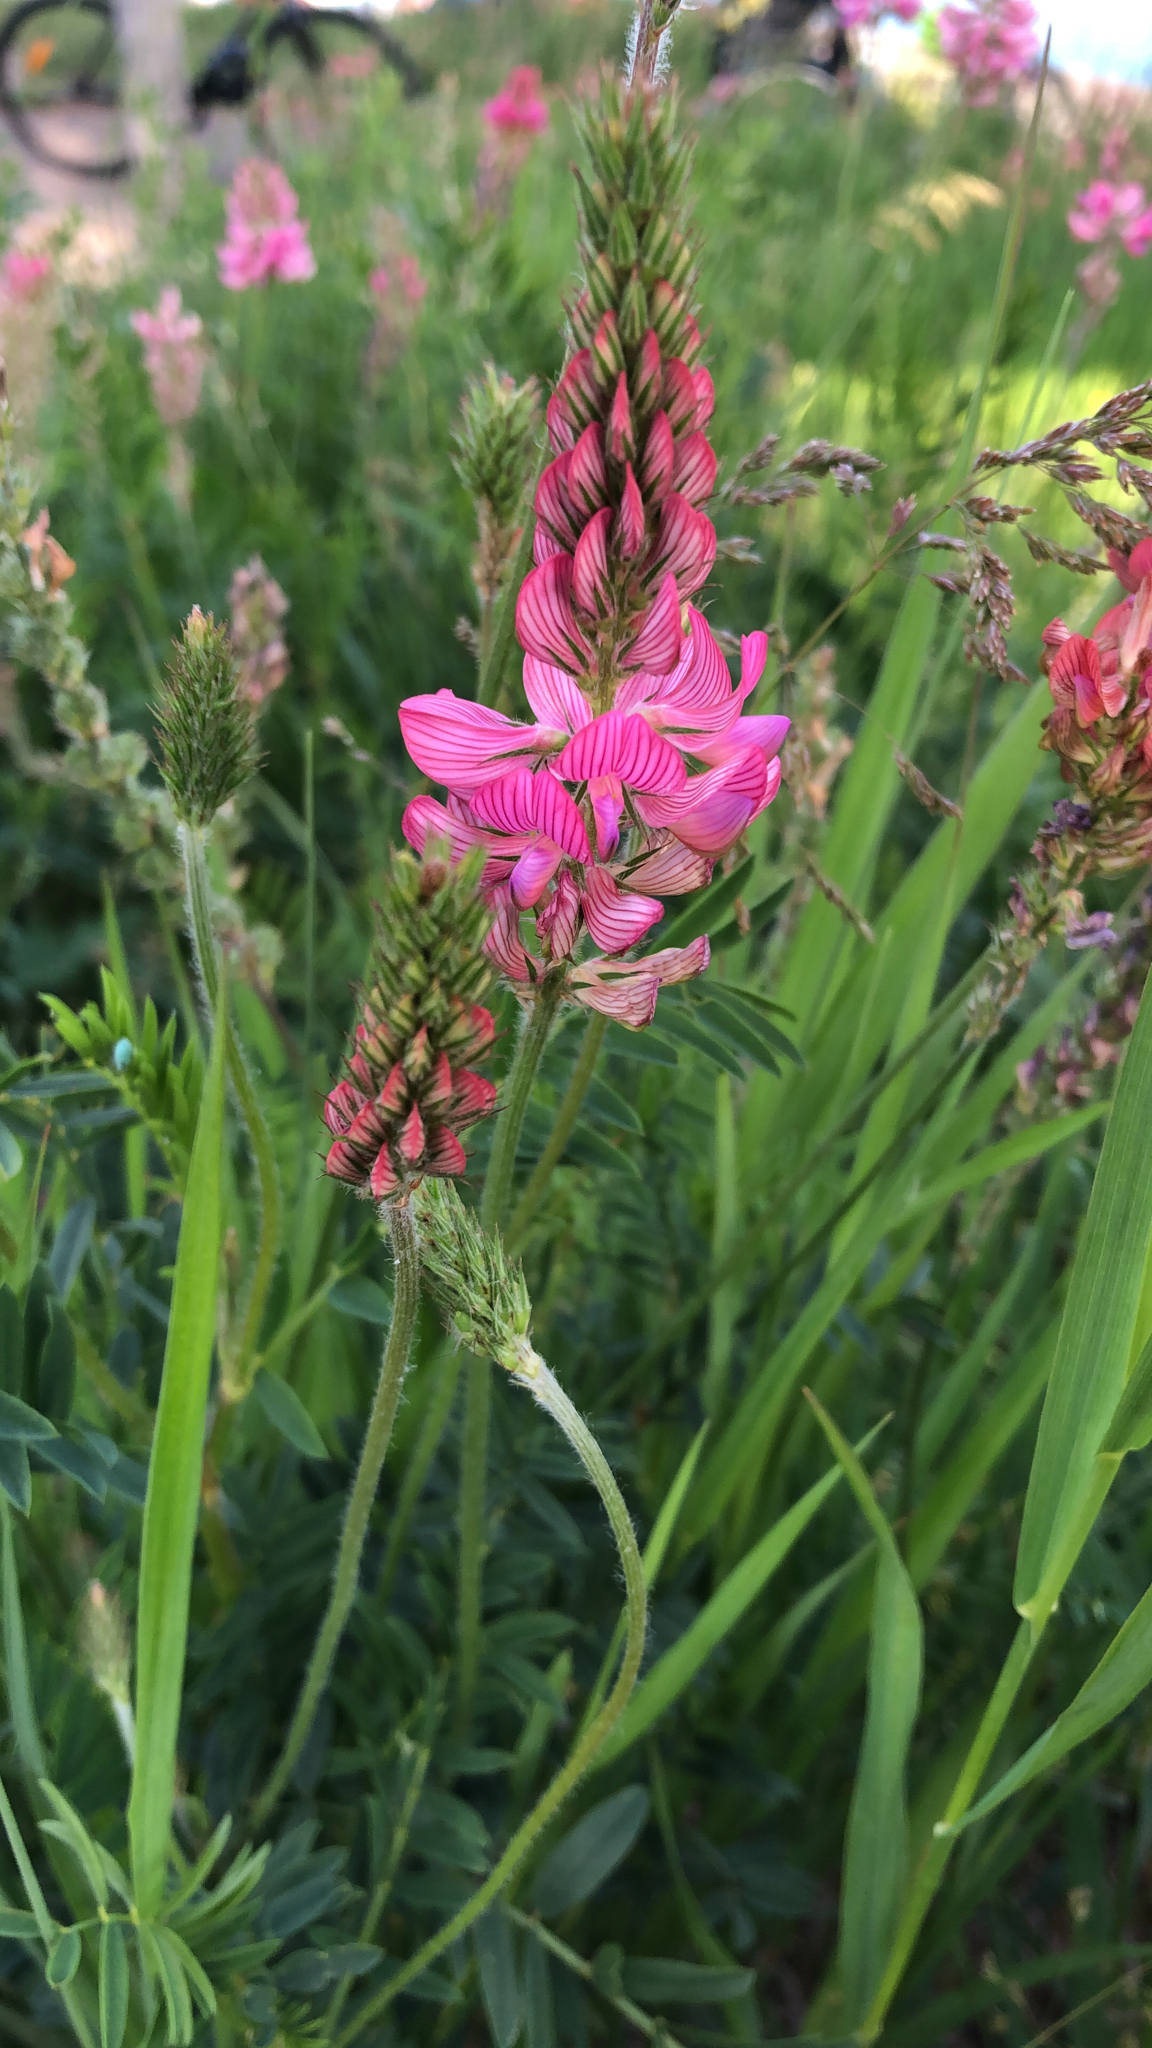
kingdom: Plantae
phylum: Tracheophyta
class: Magnoliopsida
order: Fabales
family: Fabaceae
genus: Onobrychis
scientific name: Onobrychis viciifolia
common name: Sainfoin
